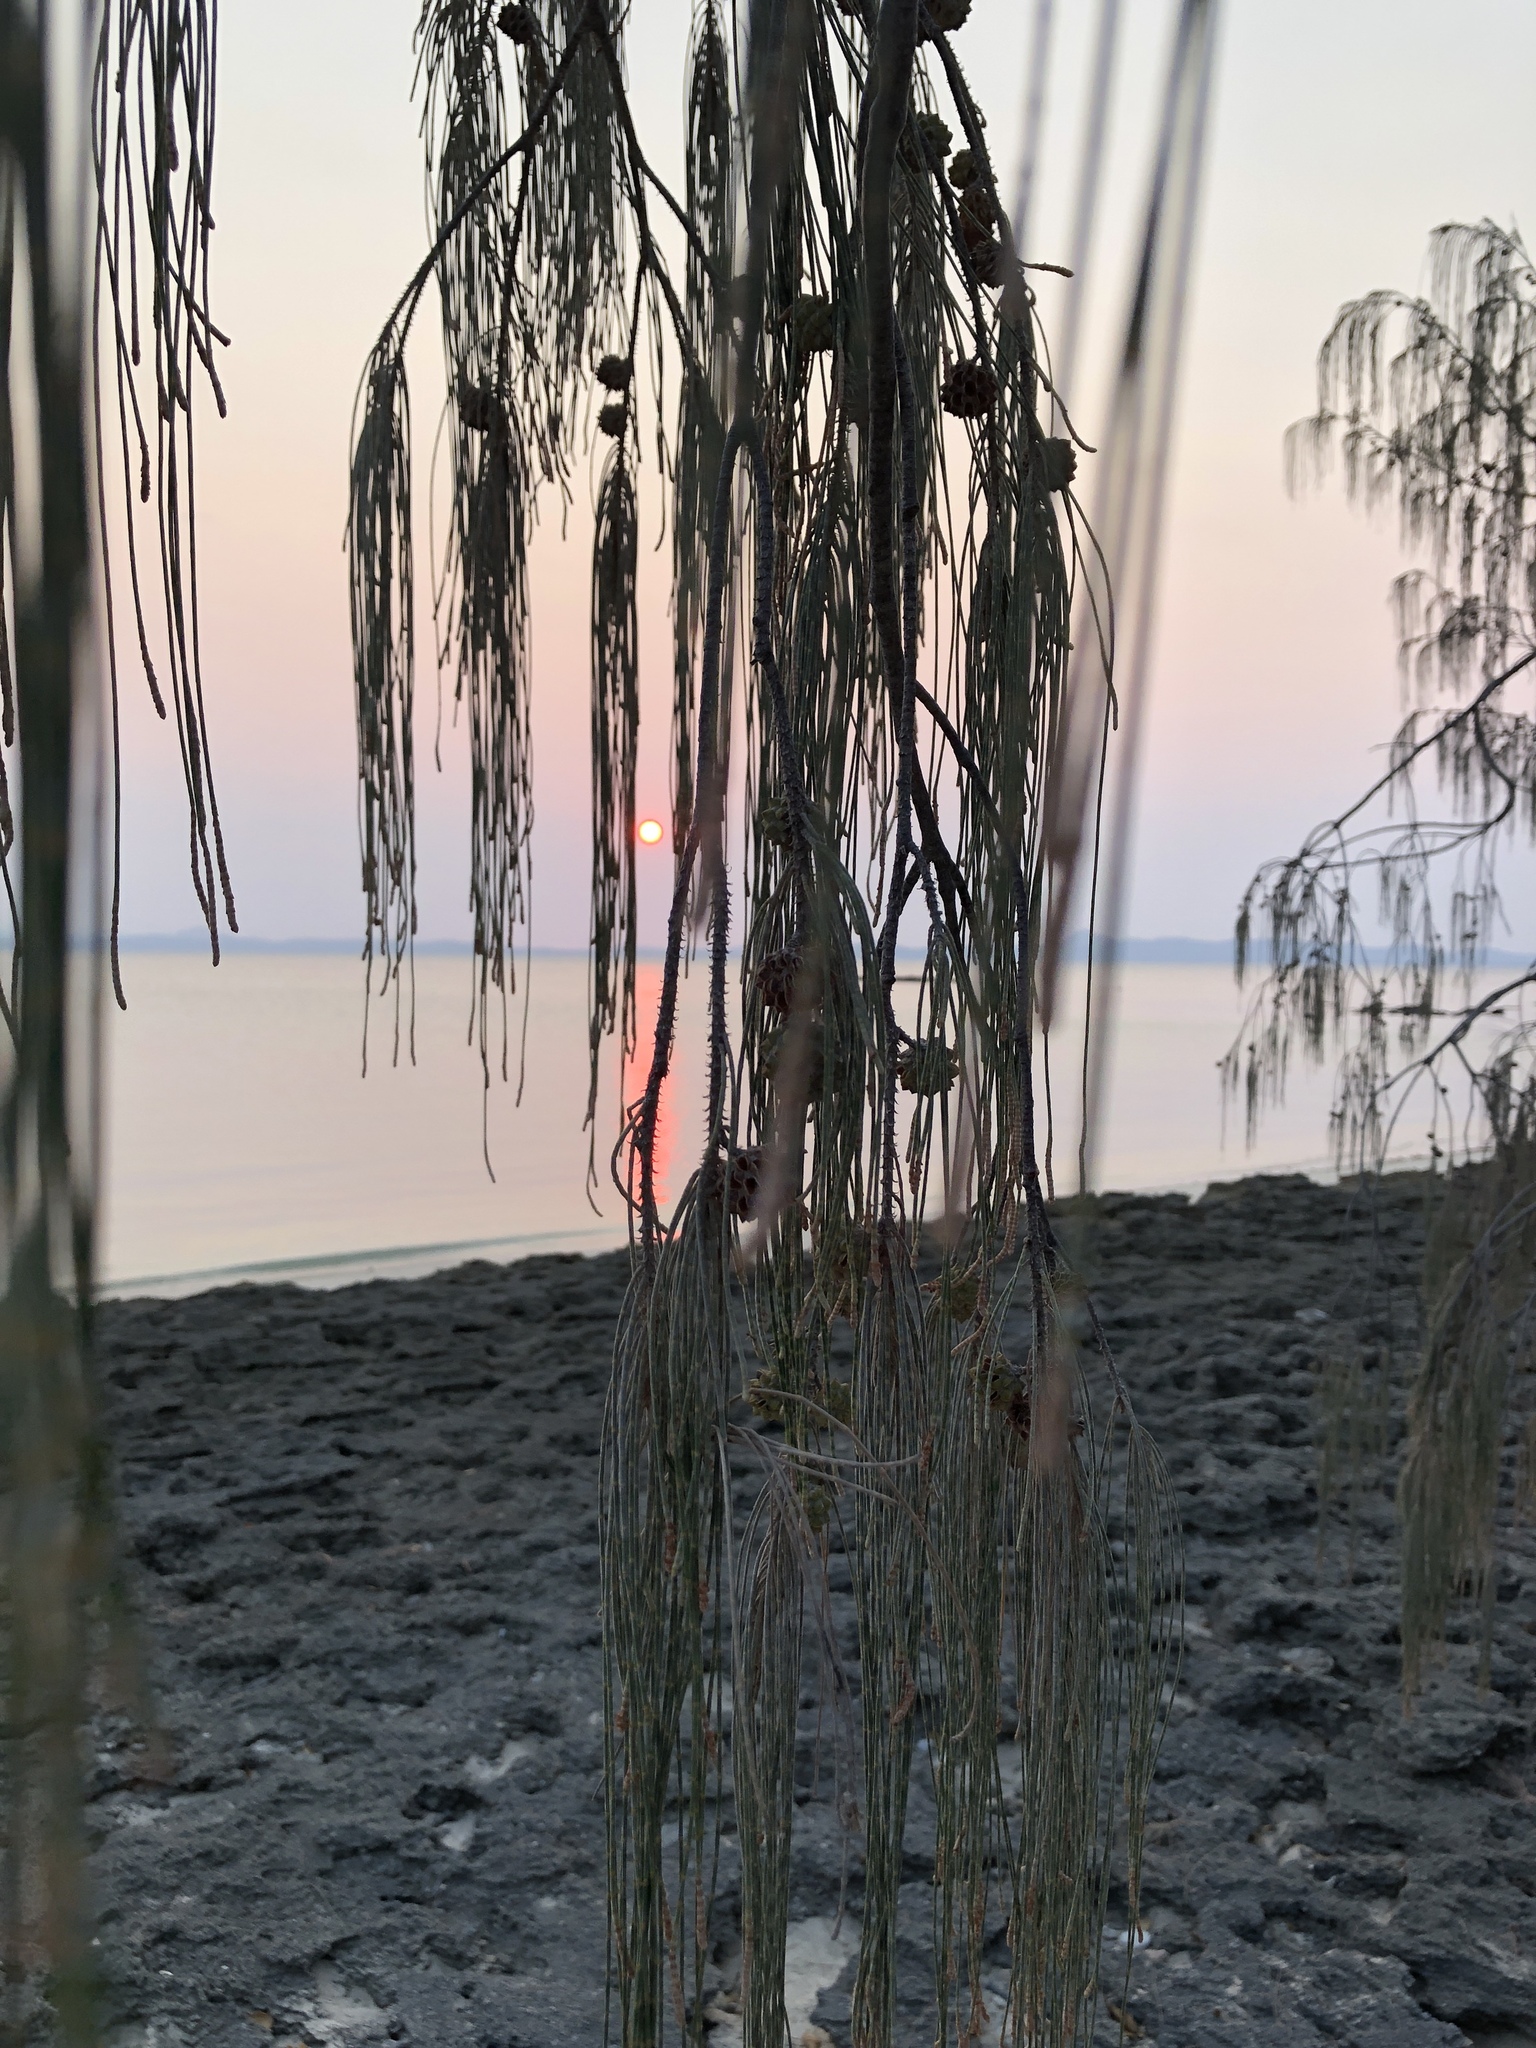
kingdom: Plantae
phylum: Tracheophyta
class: Magnoliopsida
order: Fagales
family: Casuarinaceae
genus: Casuarina
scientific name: Casuarina equisetifolia
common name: Beach sheoak
